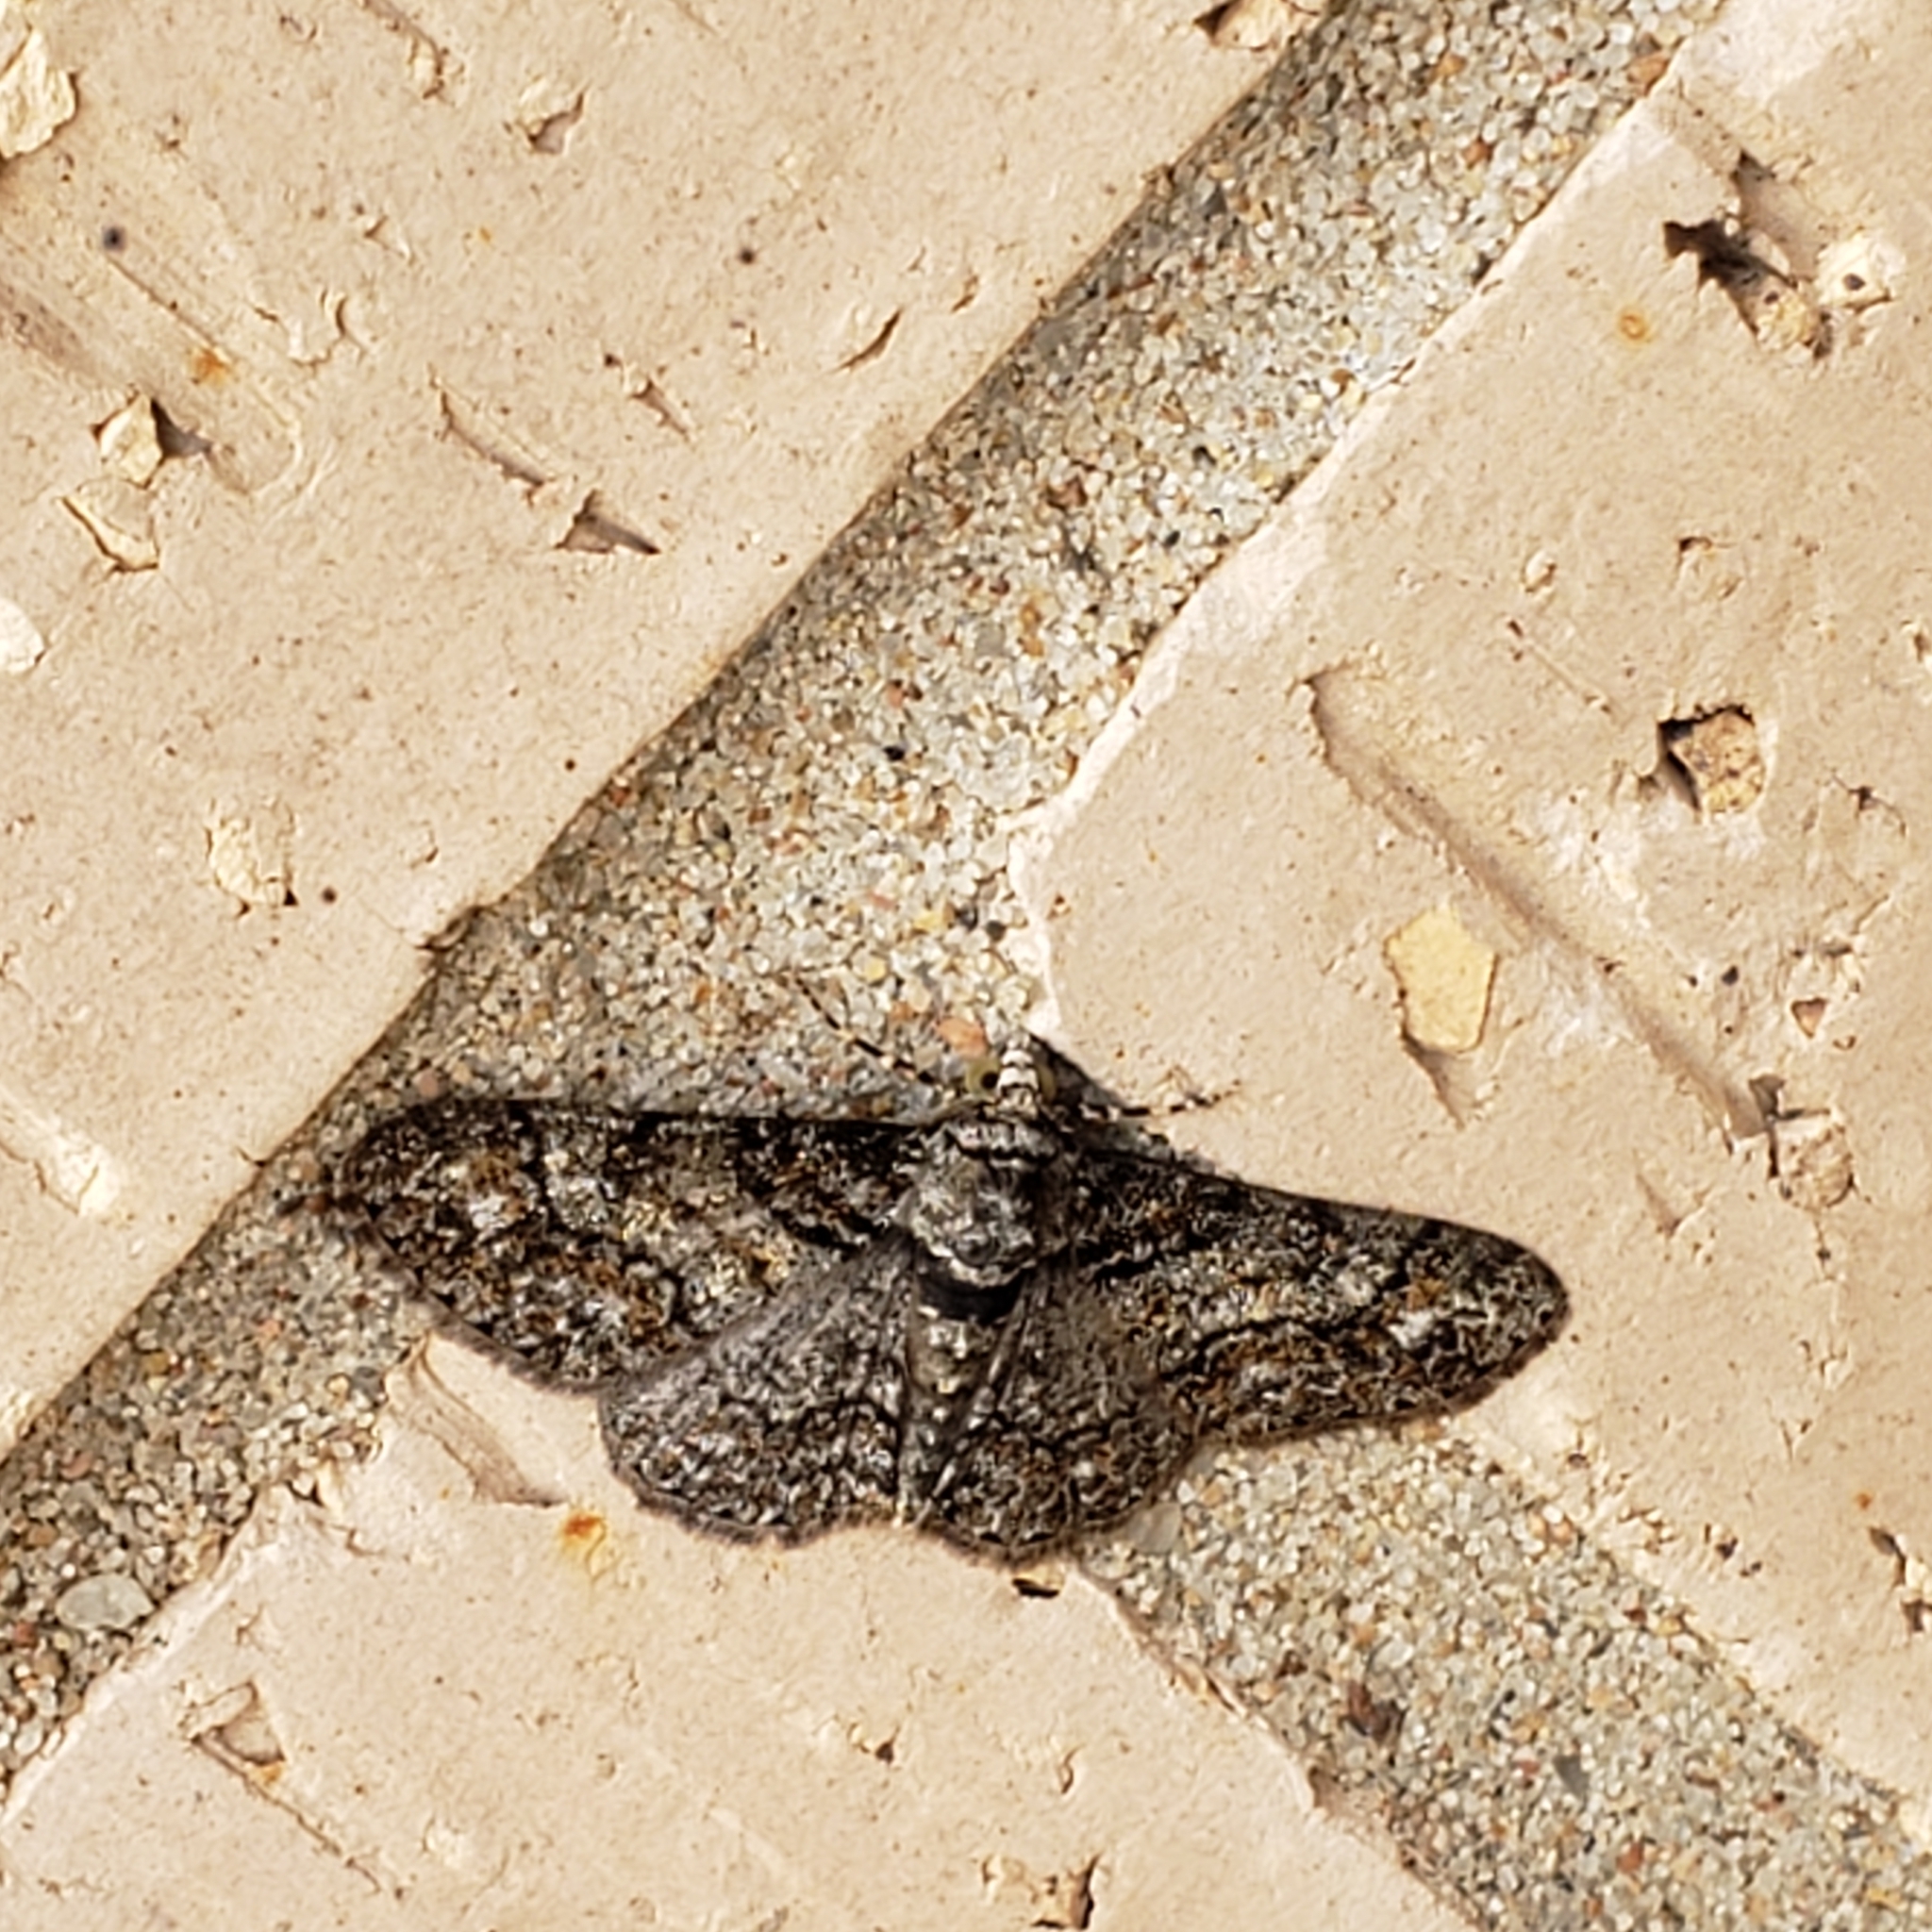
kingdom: Animalia
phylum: Arthropoda
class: Insecta
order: Lepidoptera
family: Geometridae
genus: Cleora
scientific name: Cleora sublunaria
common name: Double-lined gray
